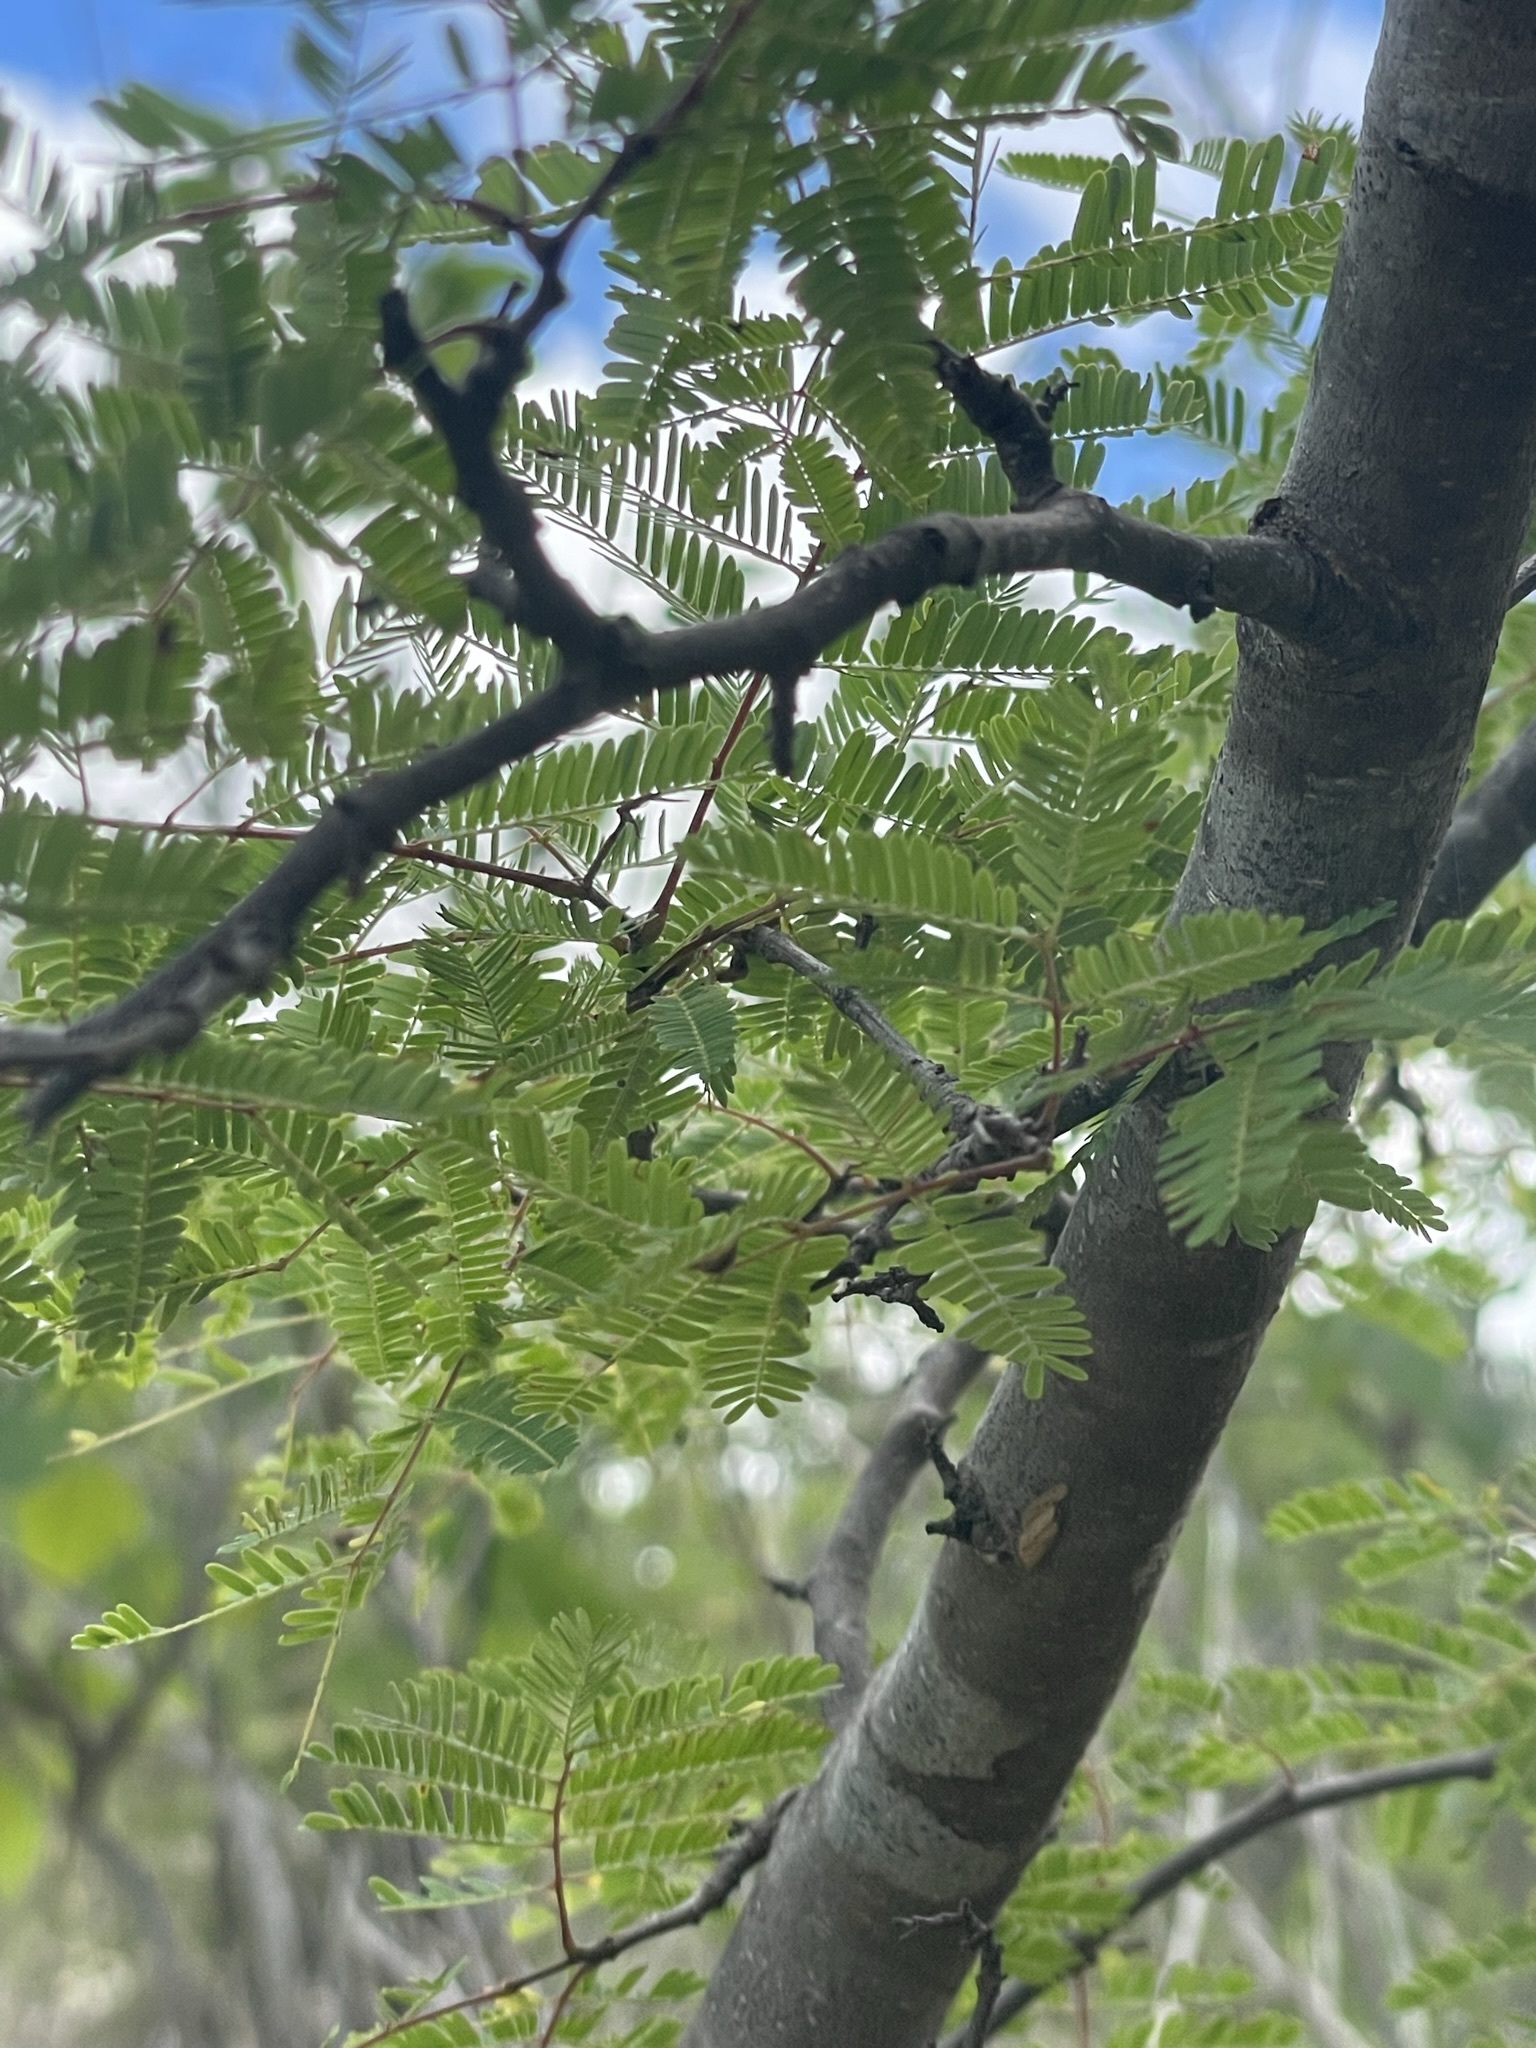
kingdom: Plantae
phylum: Tracheophyta
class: Magnoliopsida
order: Fabales
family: Fabaceae
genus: Lysiloma
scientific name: Lysiloma divaricatum
